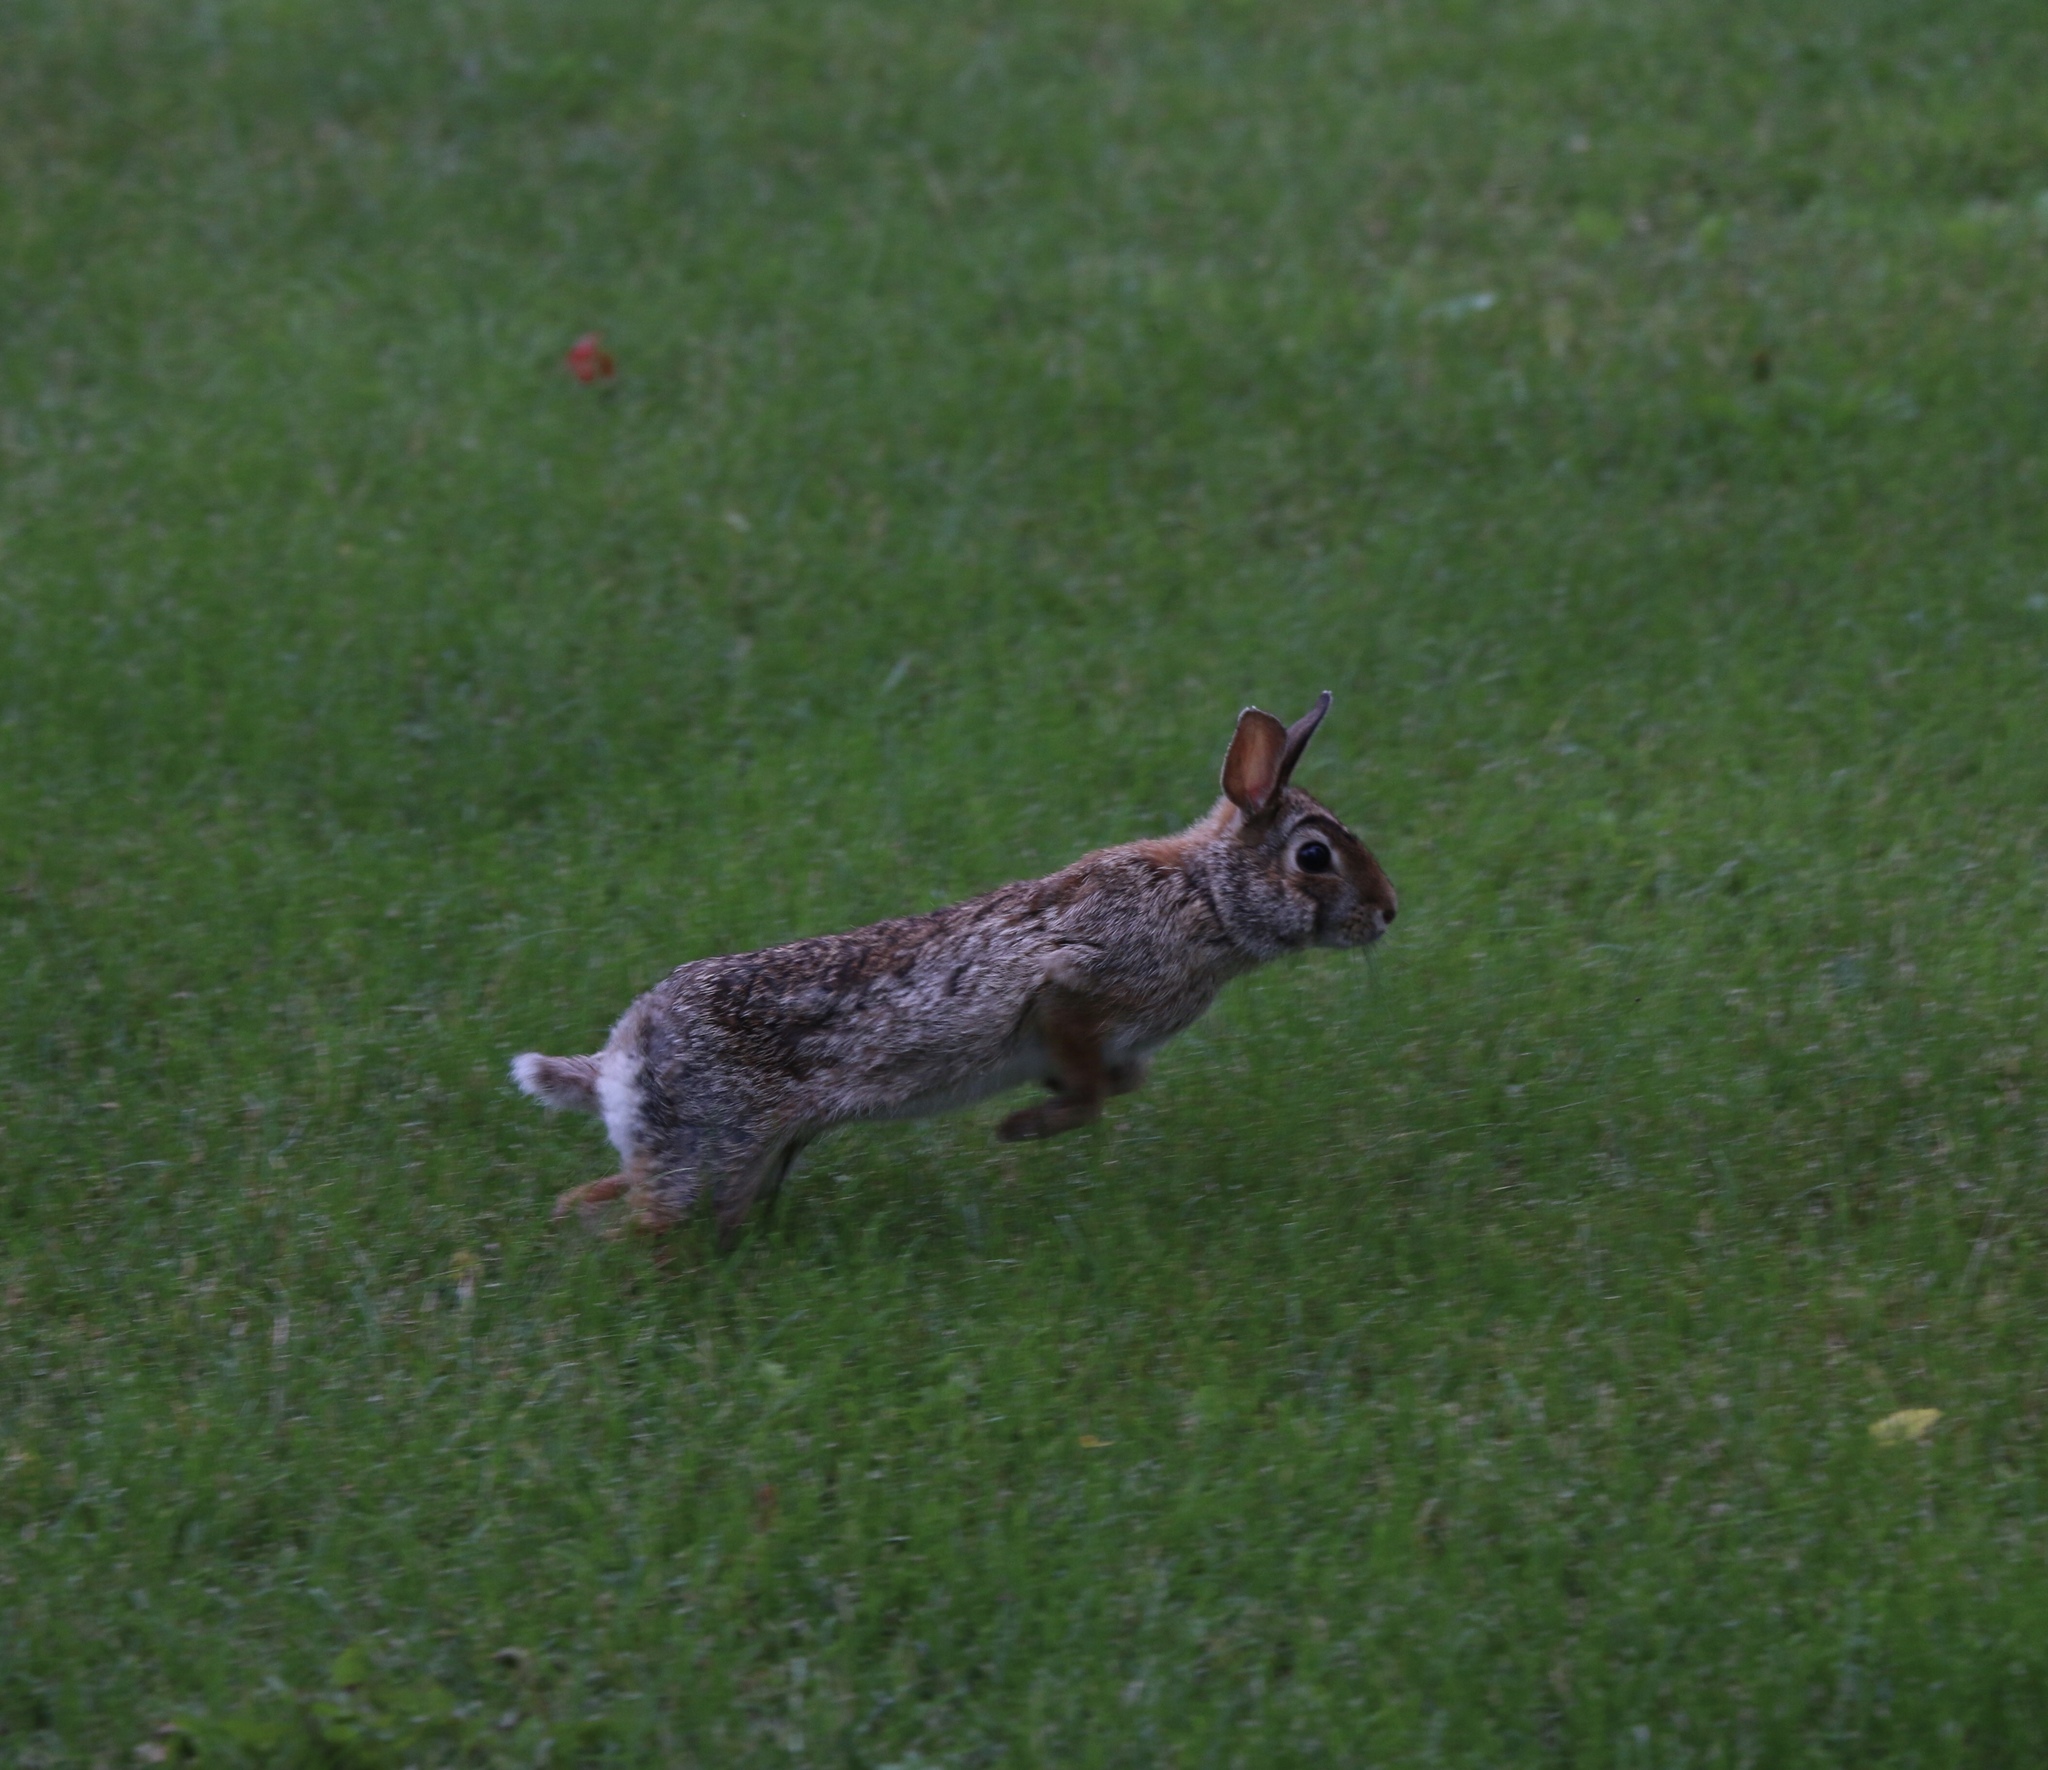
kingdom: Animalia
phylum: Chordata
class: Mammalia
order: Lagomorpha
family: Leporidae
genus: Sylvilagus
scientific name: Sylvilagus floridanus
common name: Eastern cottontail
